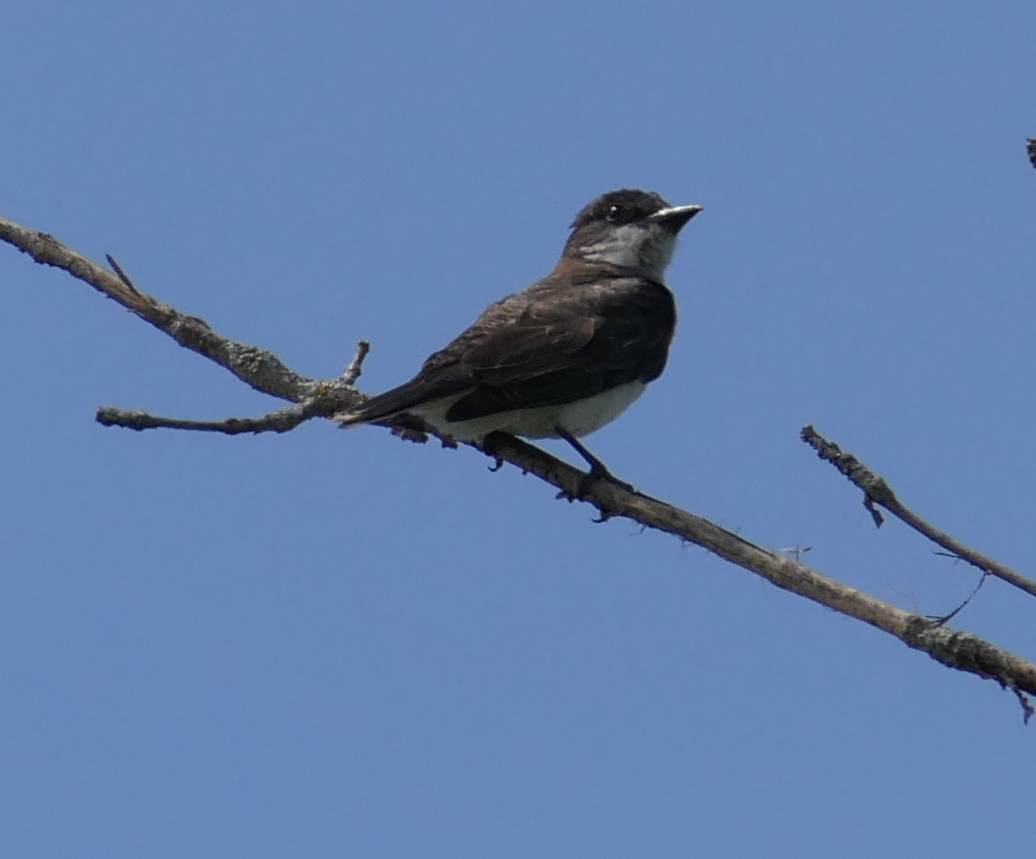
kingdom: Animalia
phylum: Chordata
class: Aves
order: Passeriformes
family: Tyrannidae
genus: Tyrannus
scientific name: Tyrannus tyrannus
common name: Eastern kingbird
